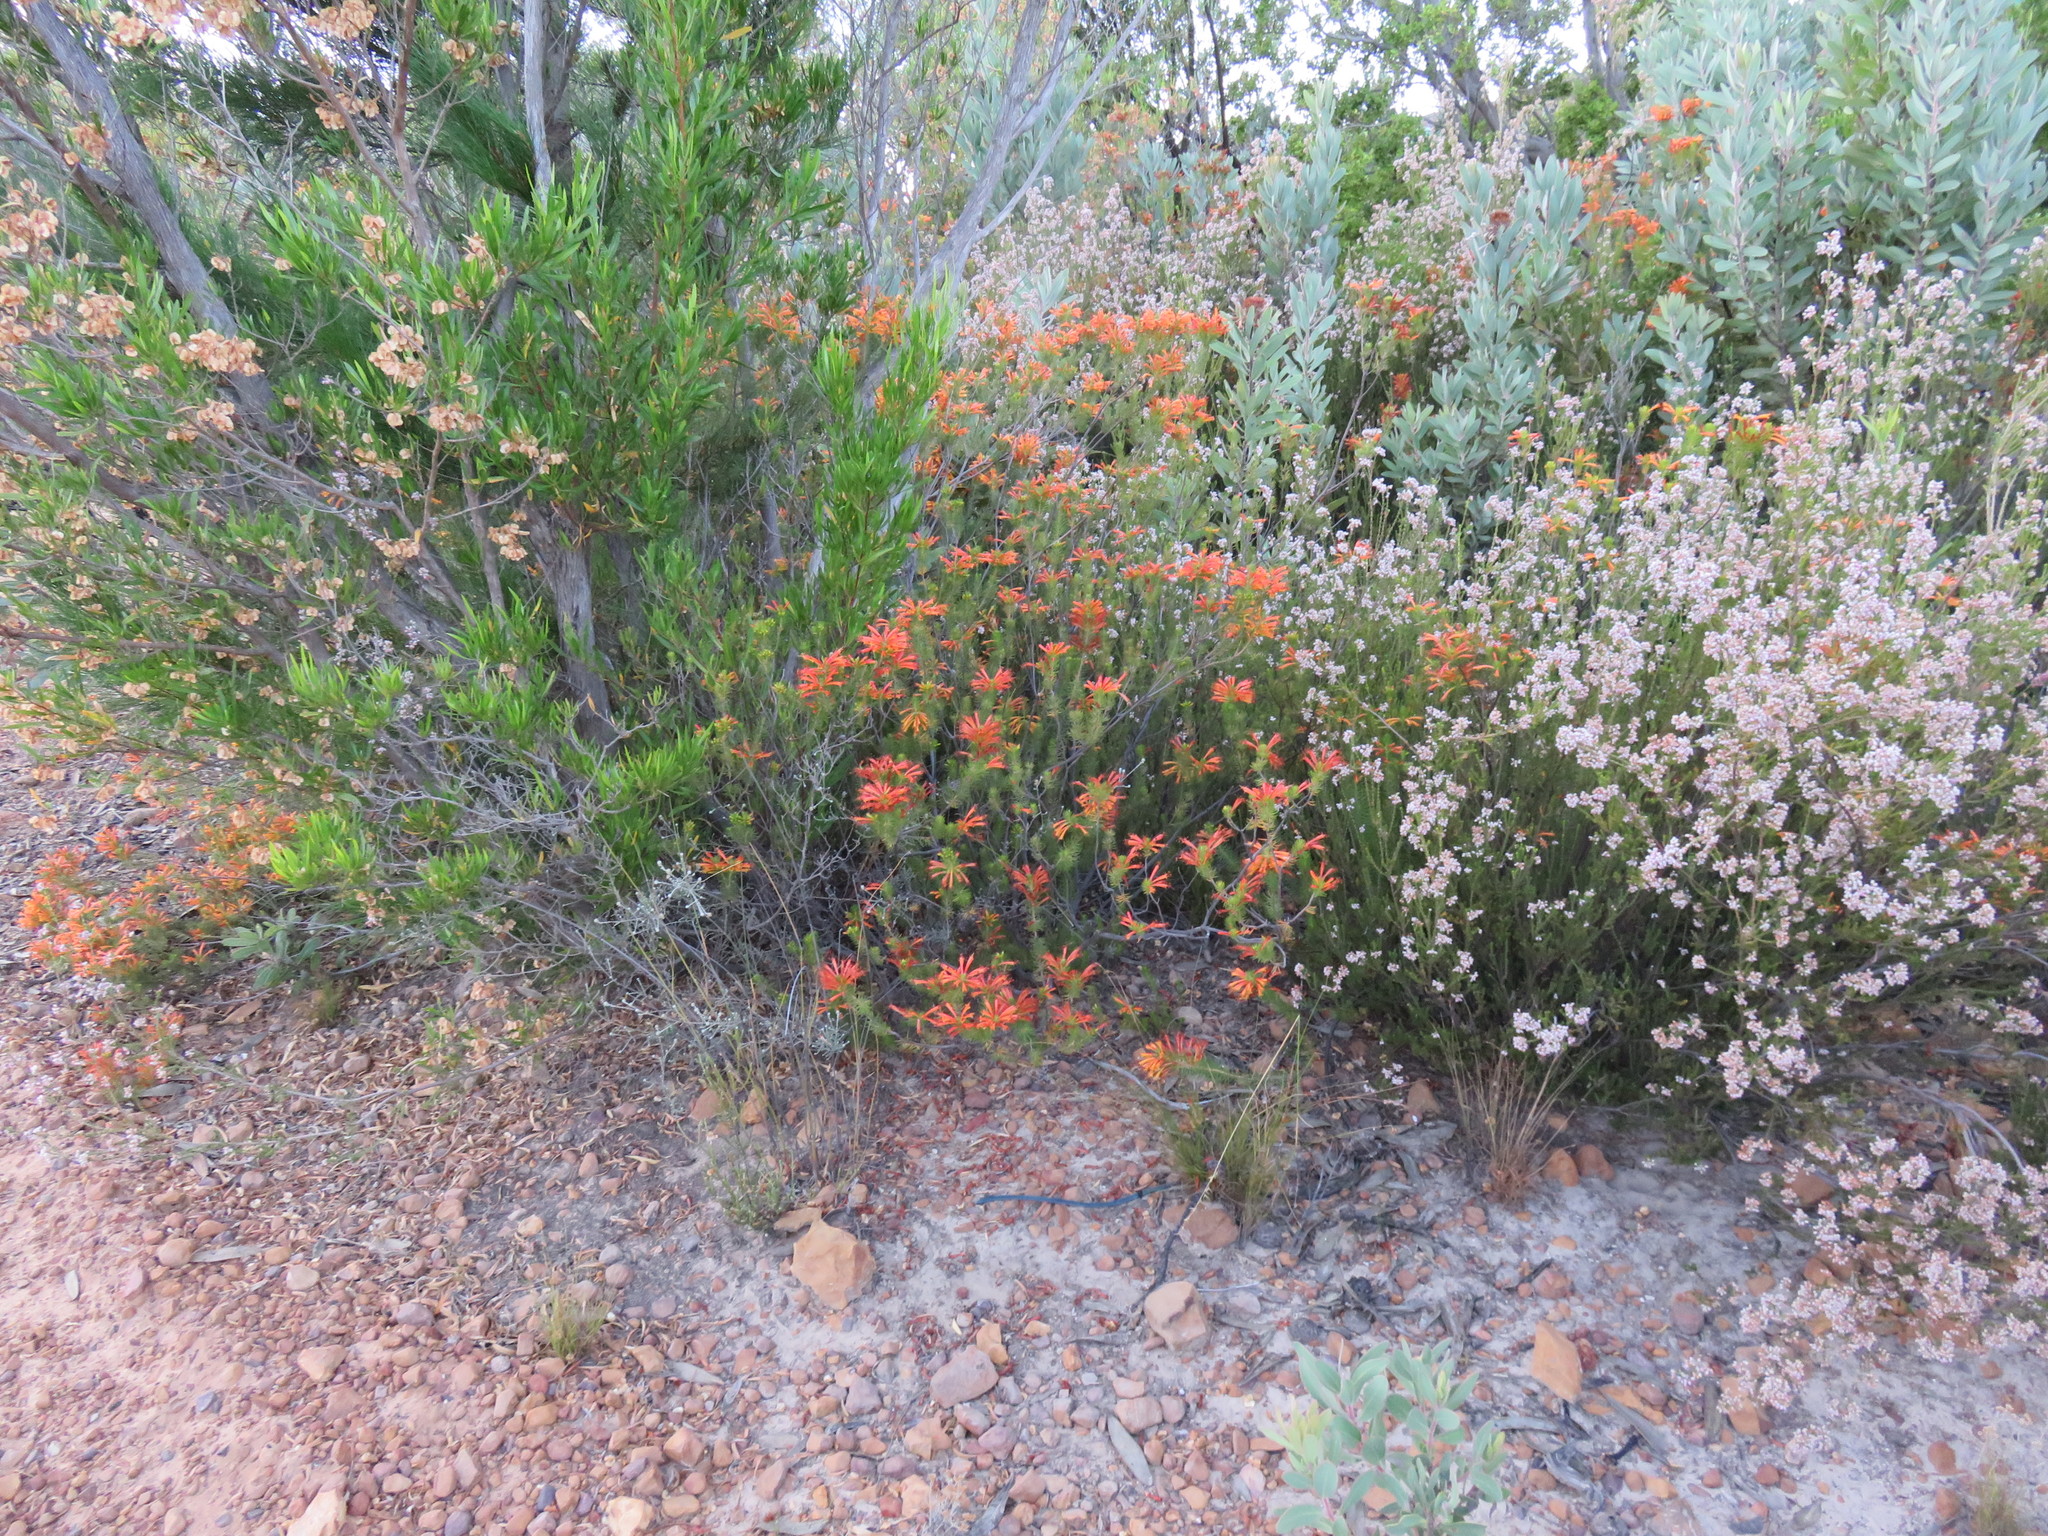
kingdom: Plantae
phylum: Tracheophyta
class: Magnoliopsida
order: Ericales
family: Ericaceae
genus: Erica
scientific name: Erica grandiflora
